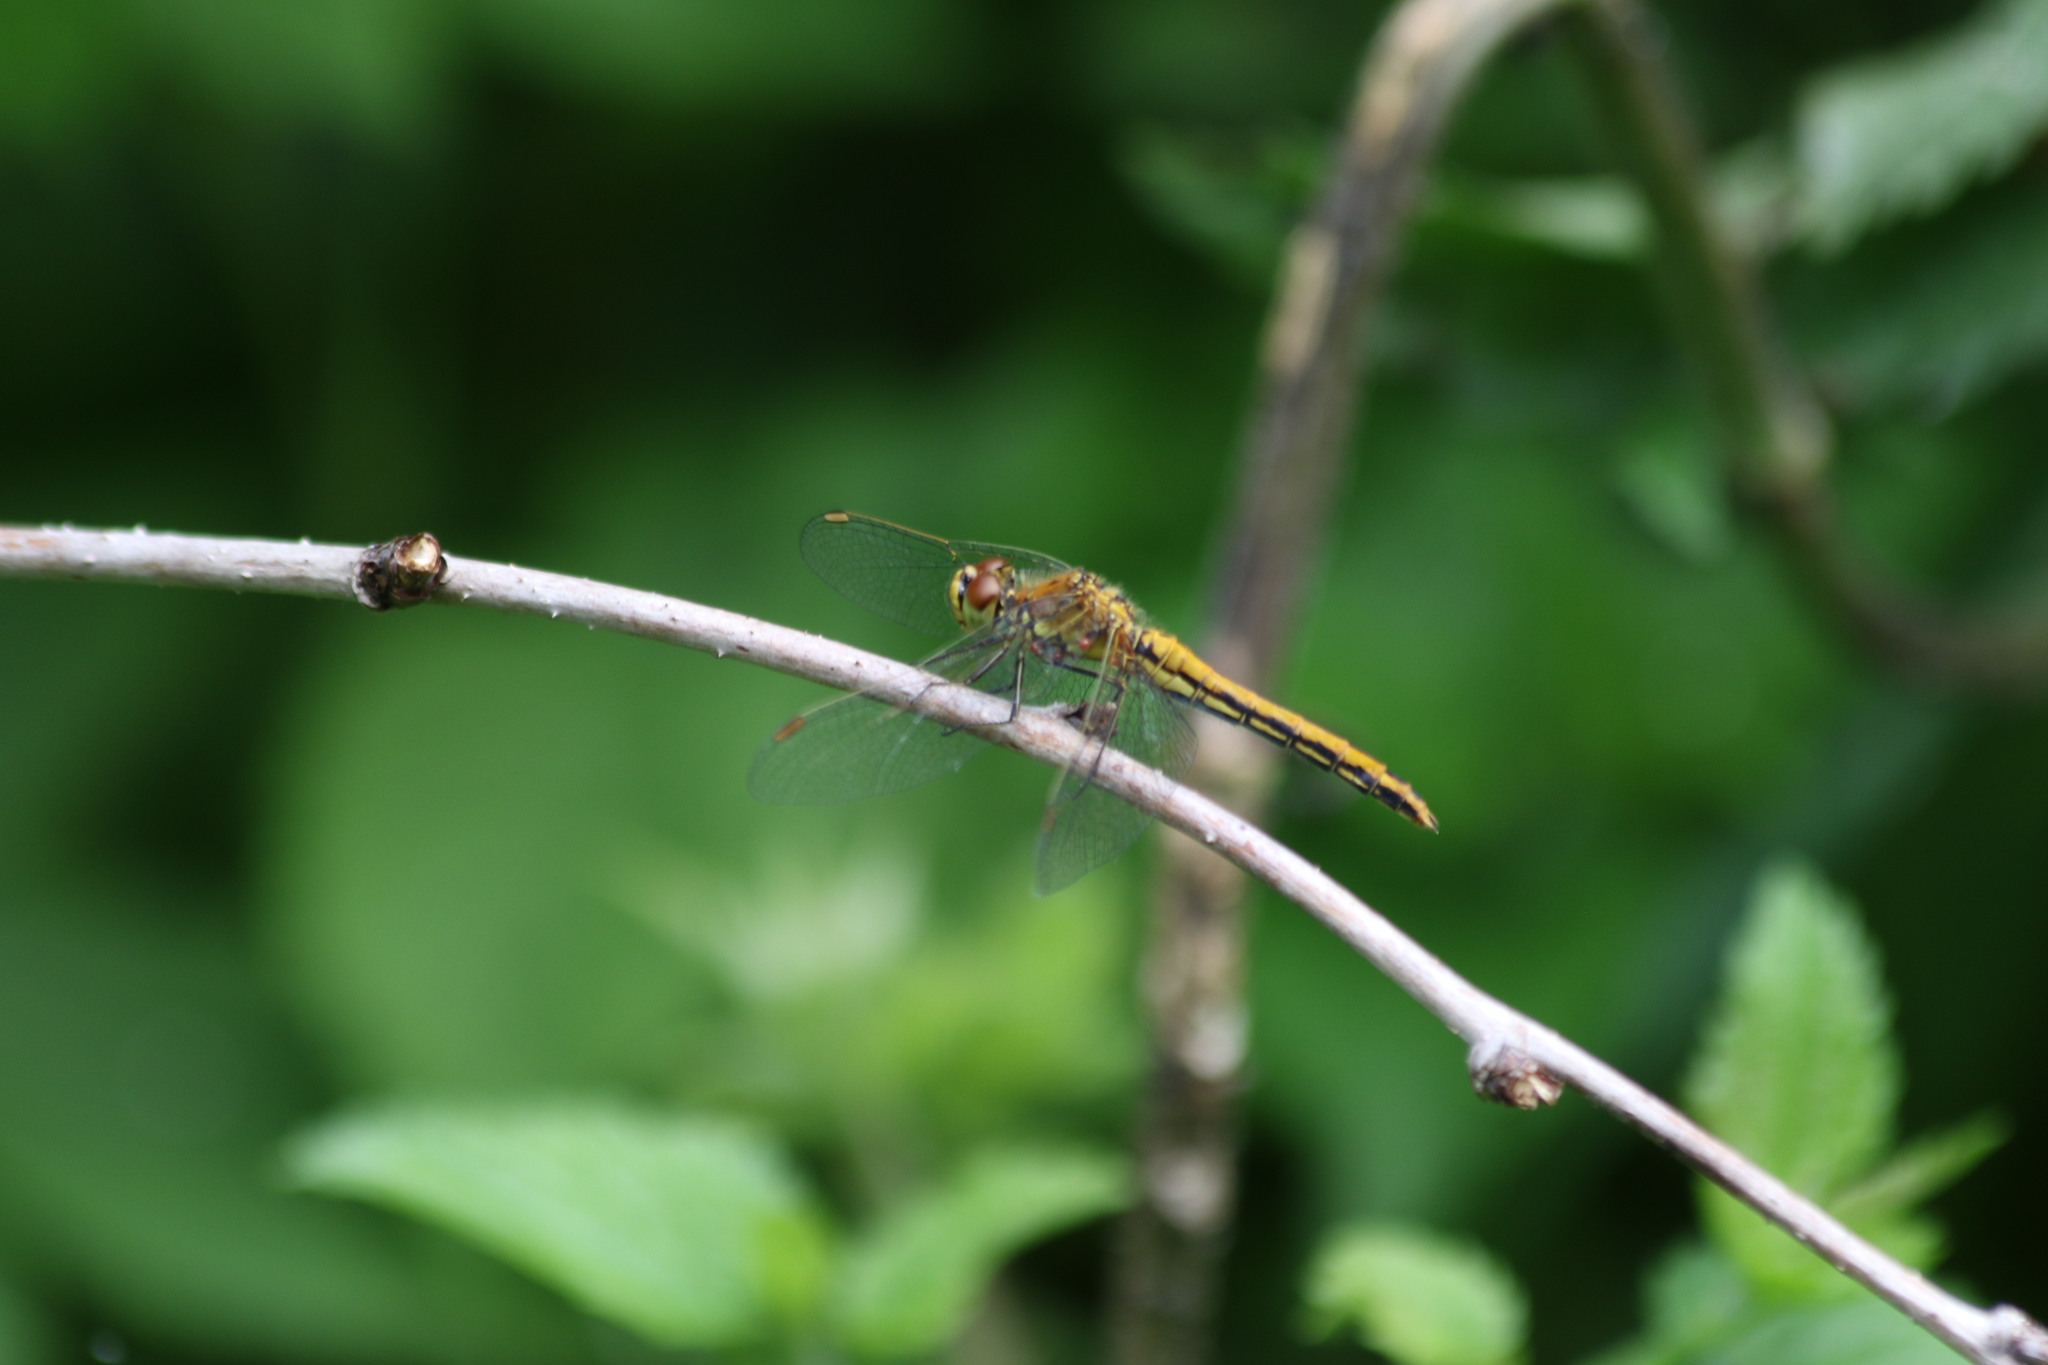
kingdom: Animalia
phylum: Arthropoda
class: Insecta
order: Odonata
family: Libellulidae
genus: Sympetrum
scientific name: Sympetrum flaveolum
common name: Yellow-winged darter
